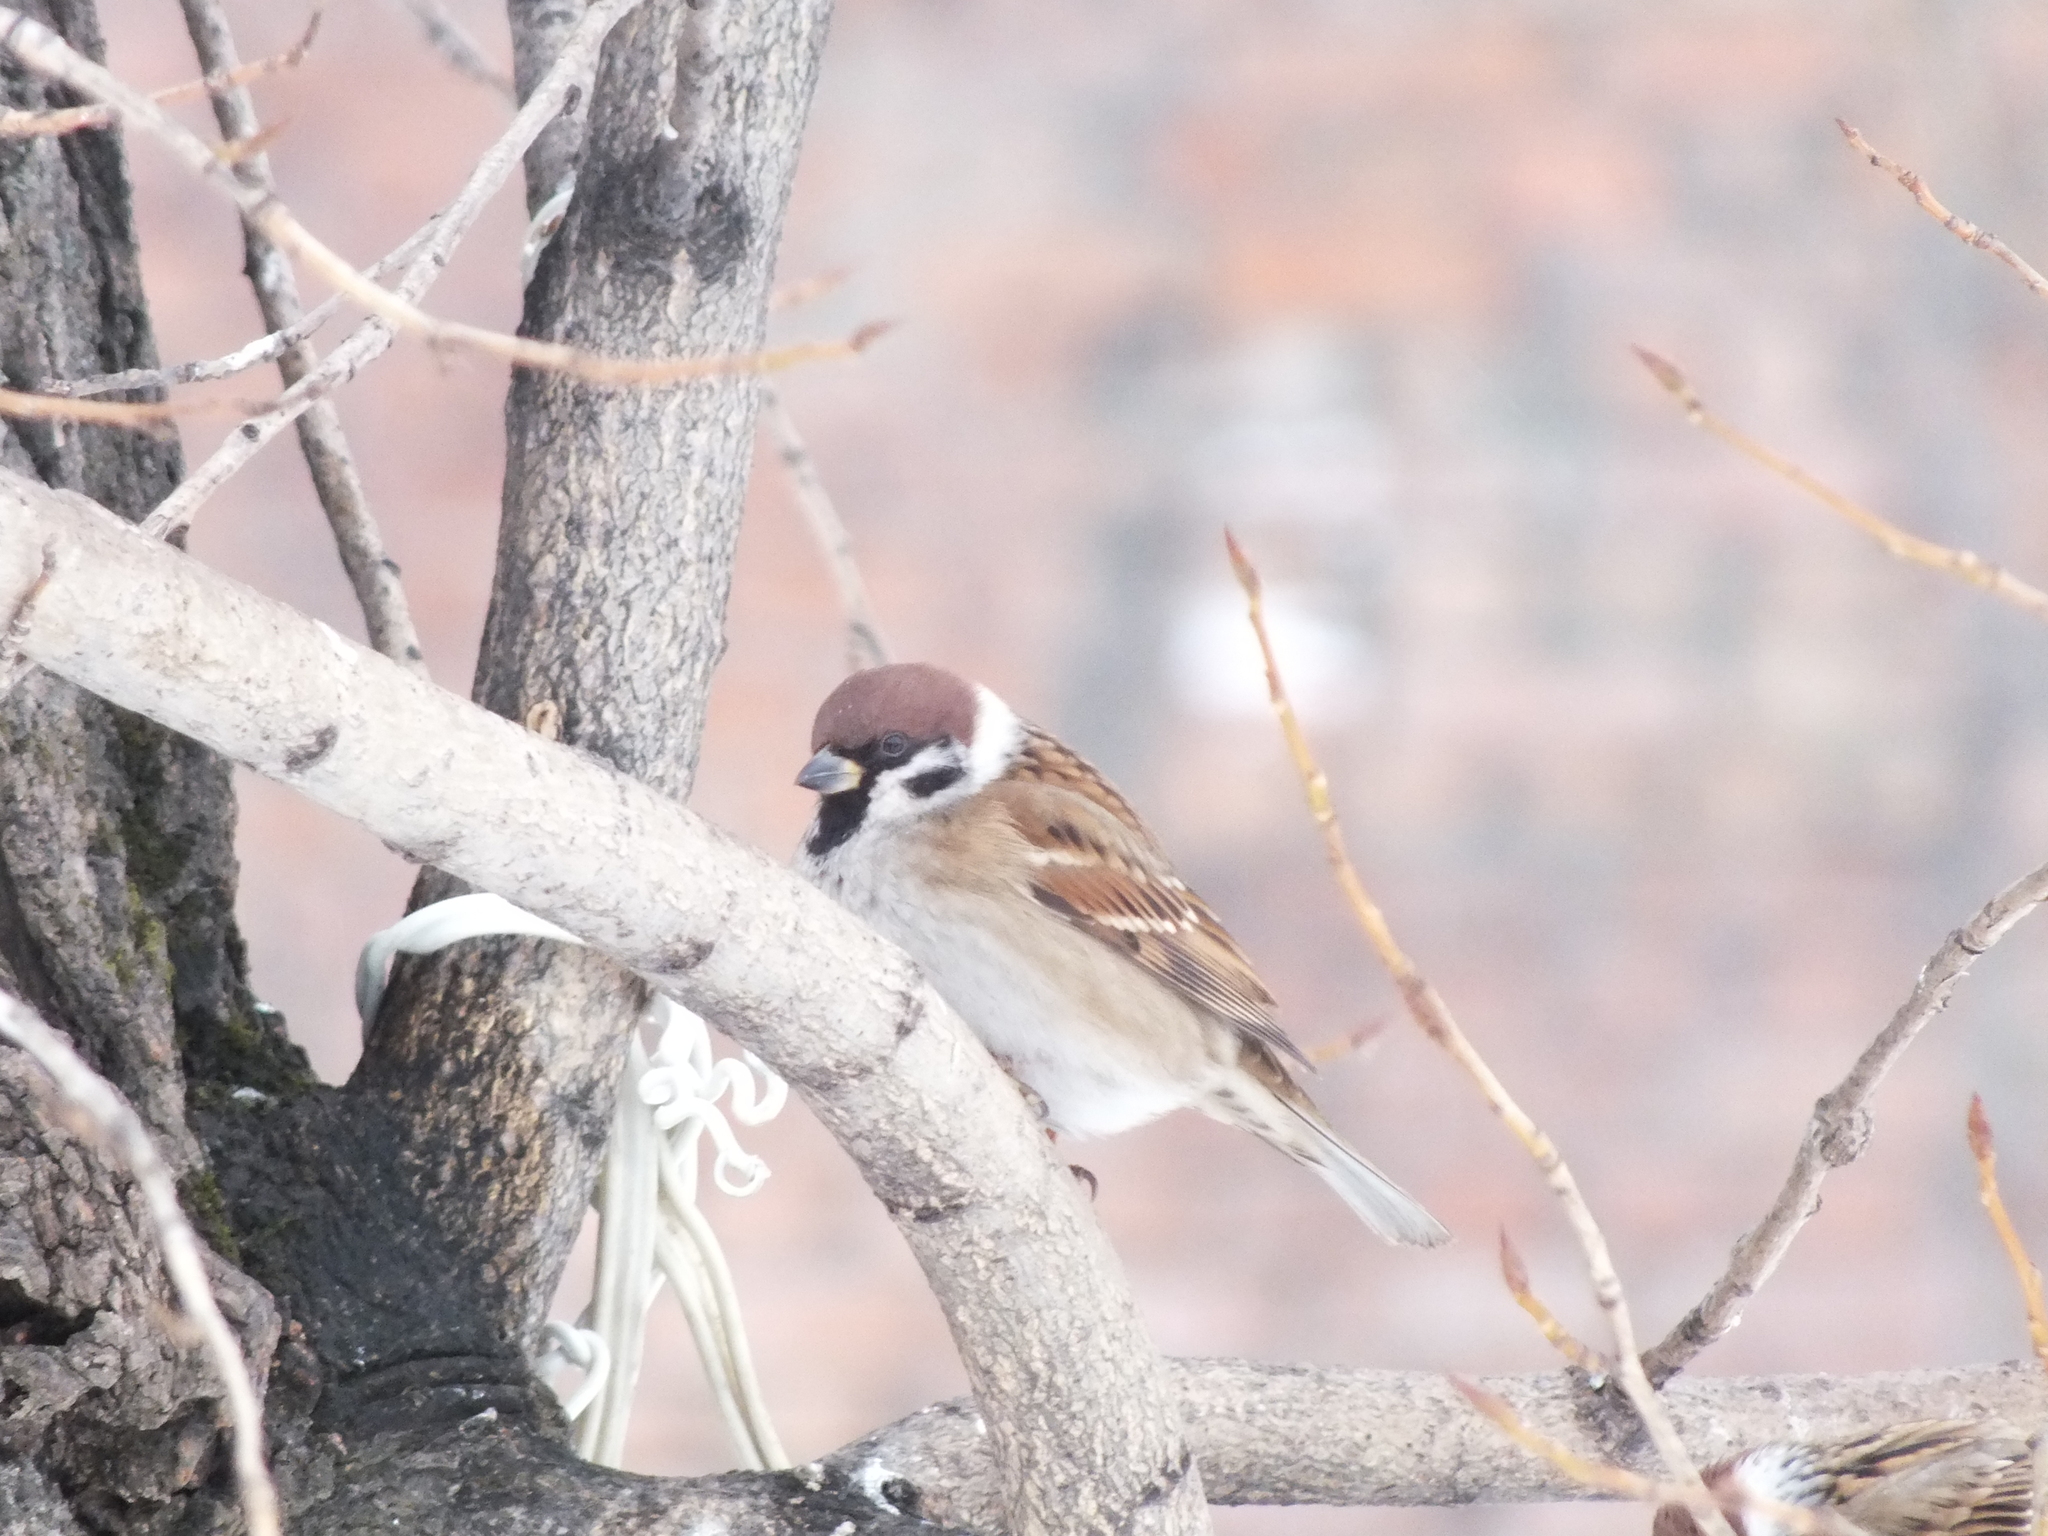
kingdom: Animalia
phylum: Chordata
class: Aves
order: Passeriformes
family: Passeridae
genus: Passer
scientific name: Passer montanus
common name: Eurasian tree sparrow
